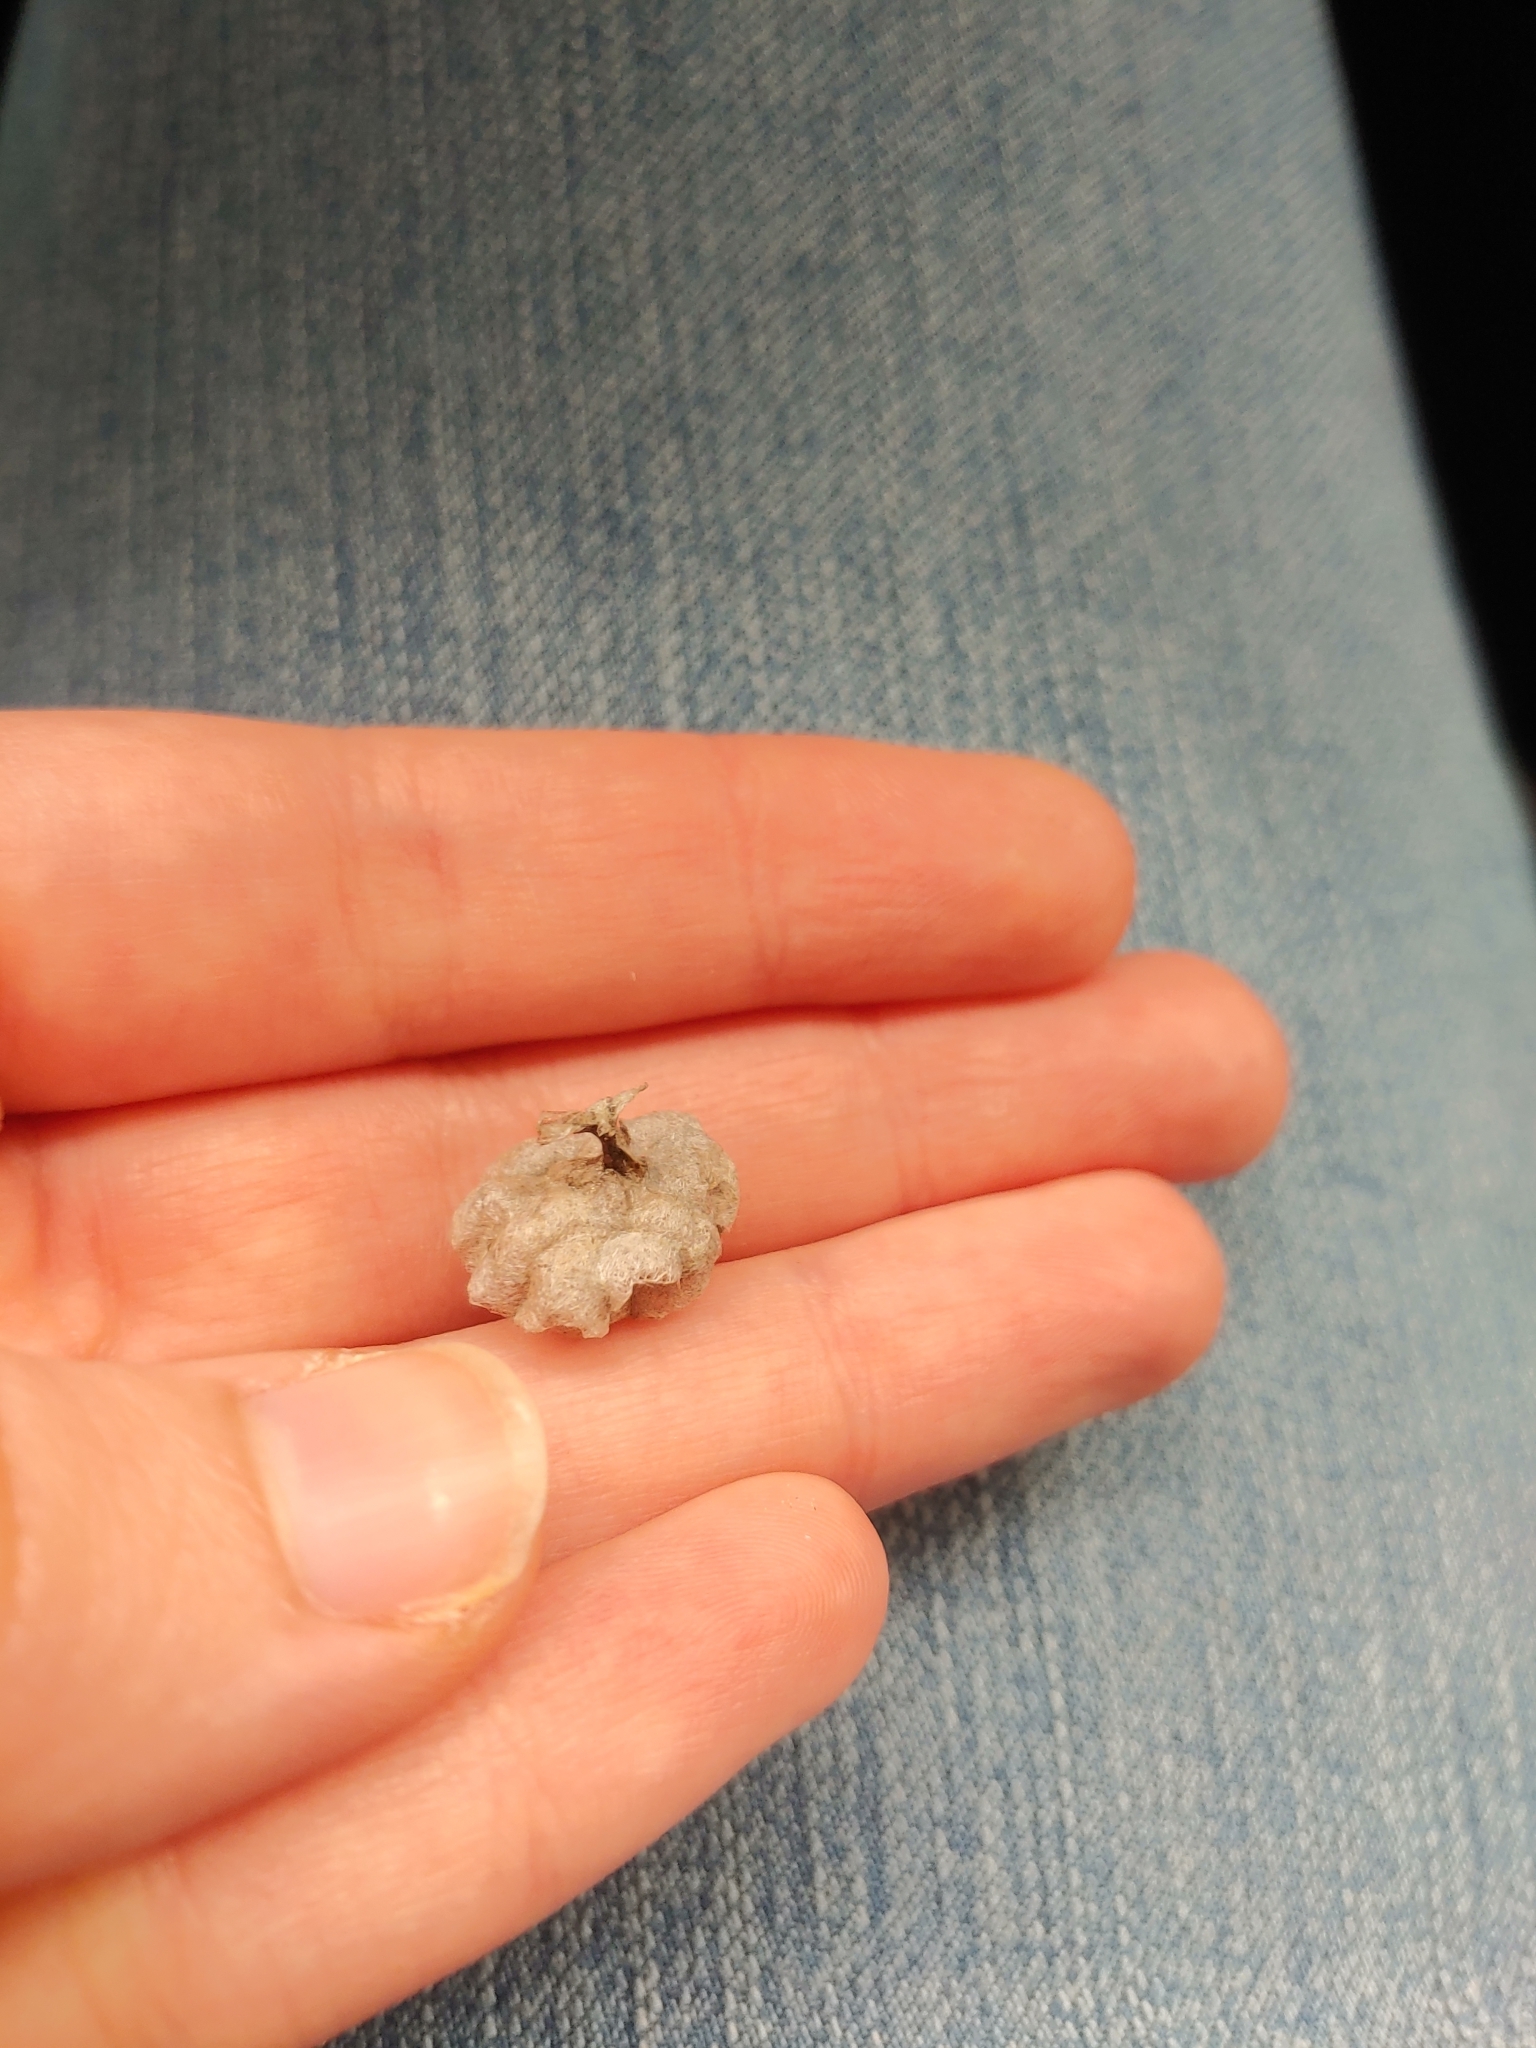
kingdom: Animalia
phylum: Arthropoda
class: Insecta
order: Hymenoptera
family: Eumenidae
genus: Polistes
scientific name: Polistes
